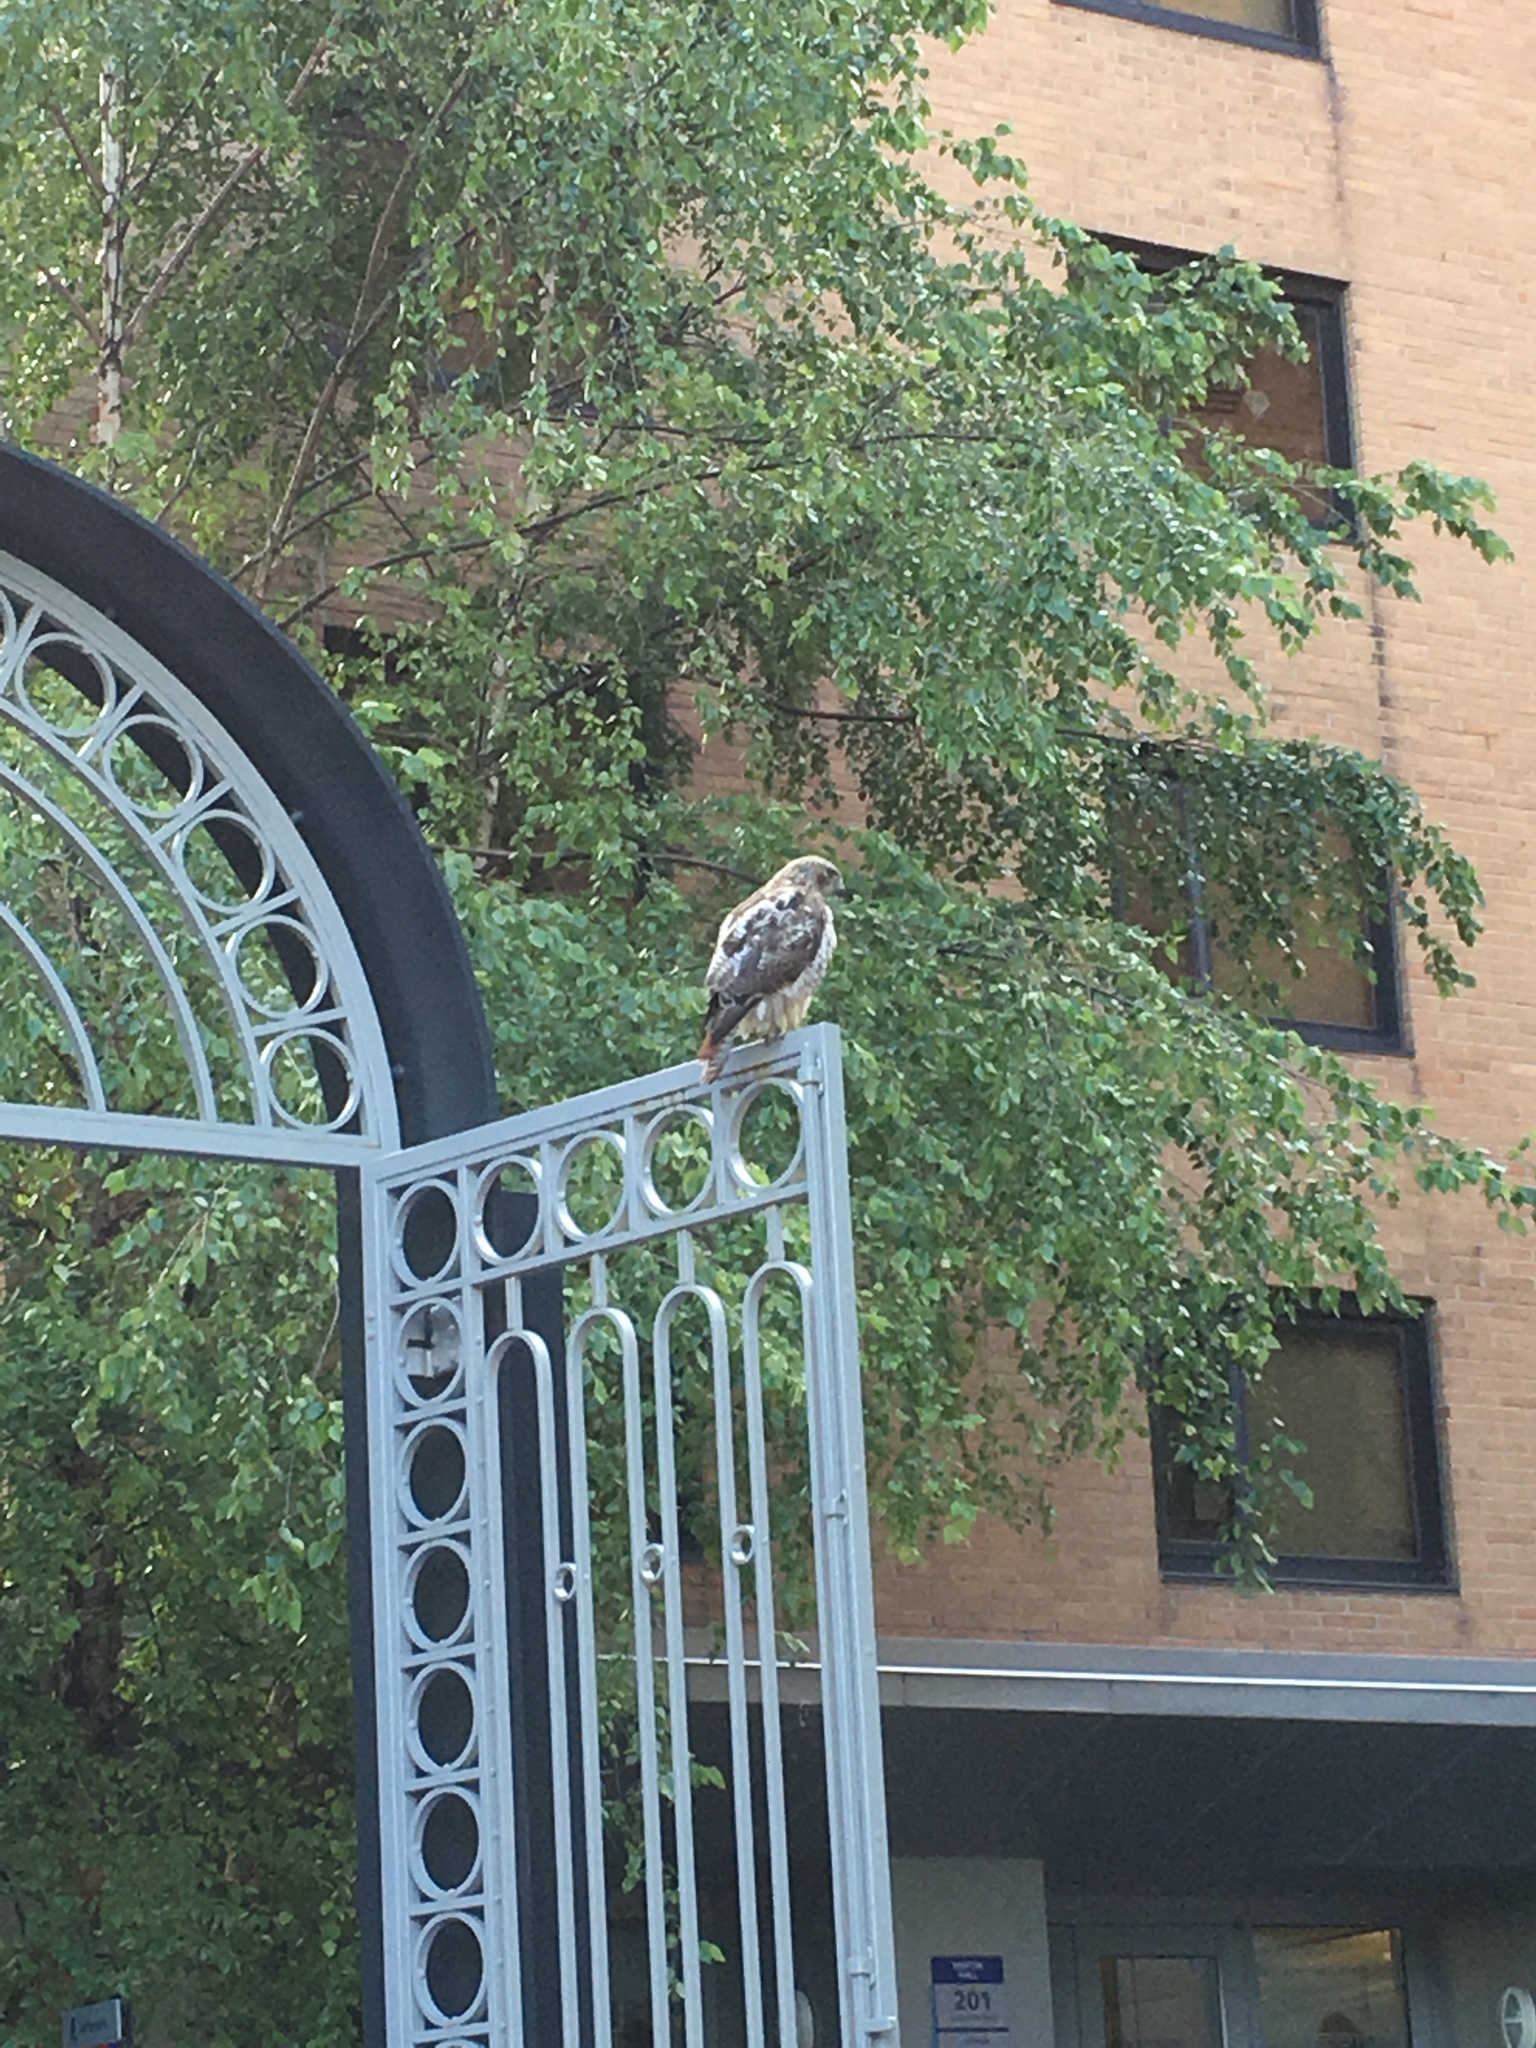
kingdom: Animalia
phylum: Chordata
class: Aves
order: Accipitriformes
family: Accipitridae
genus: Buteo
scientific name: Buteo jamaicensis
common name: Red-tailed hawk
